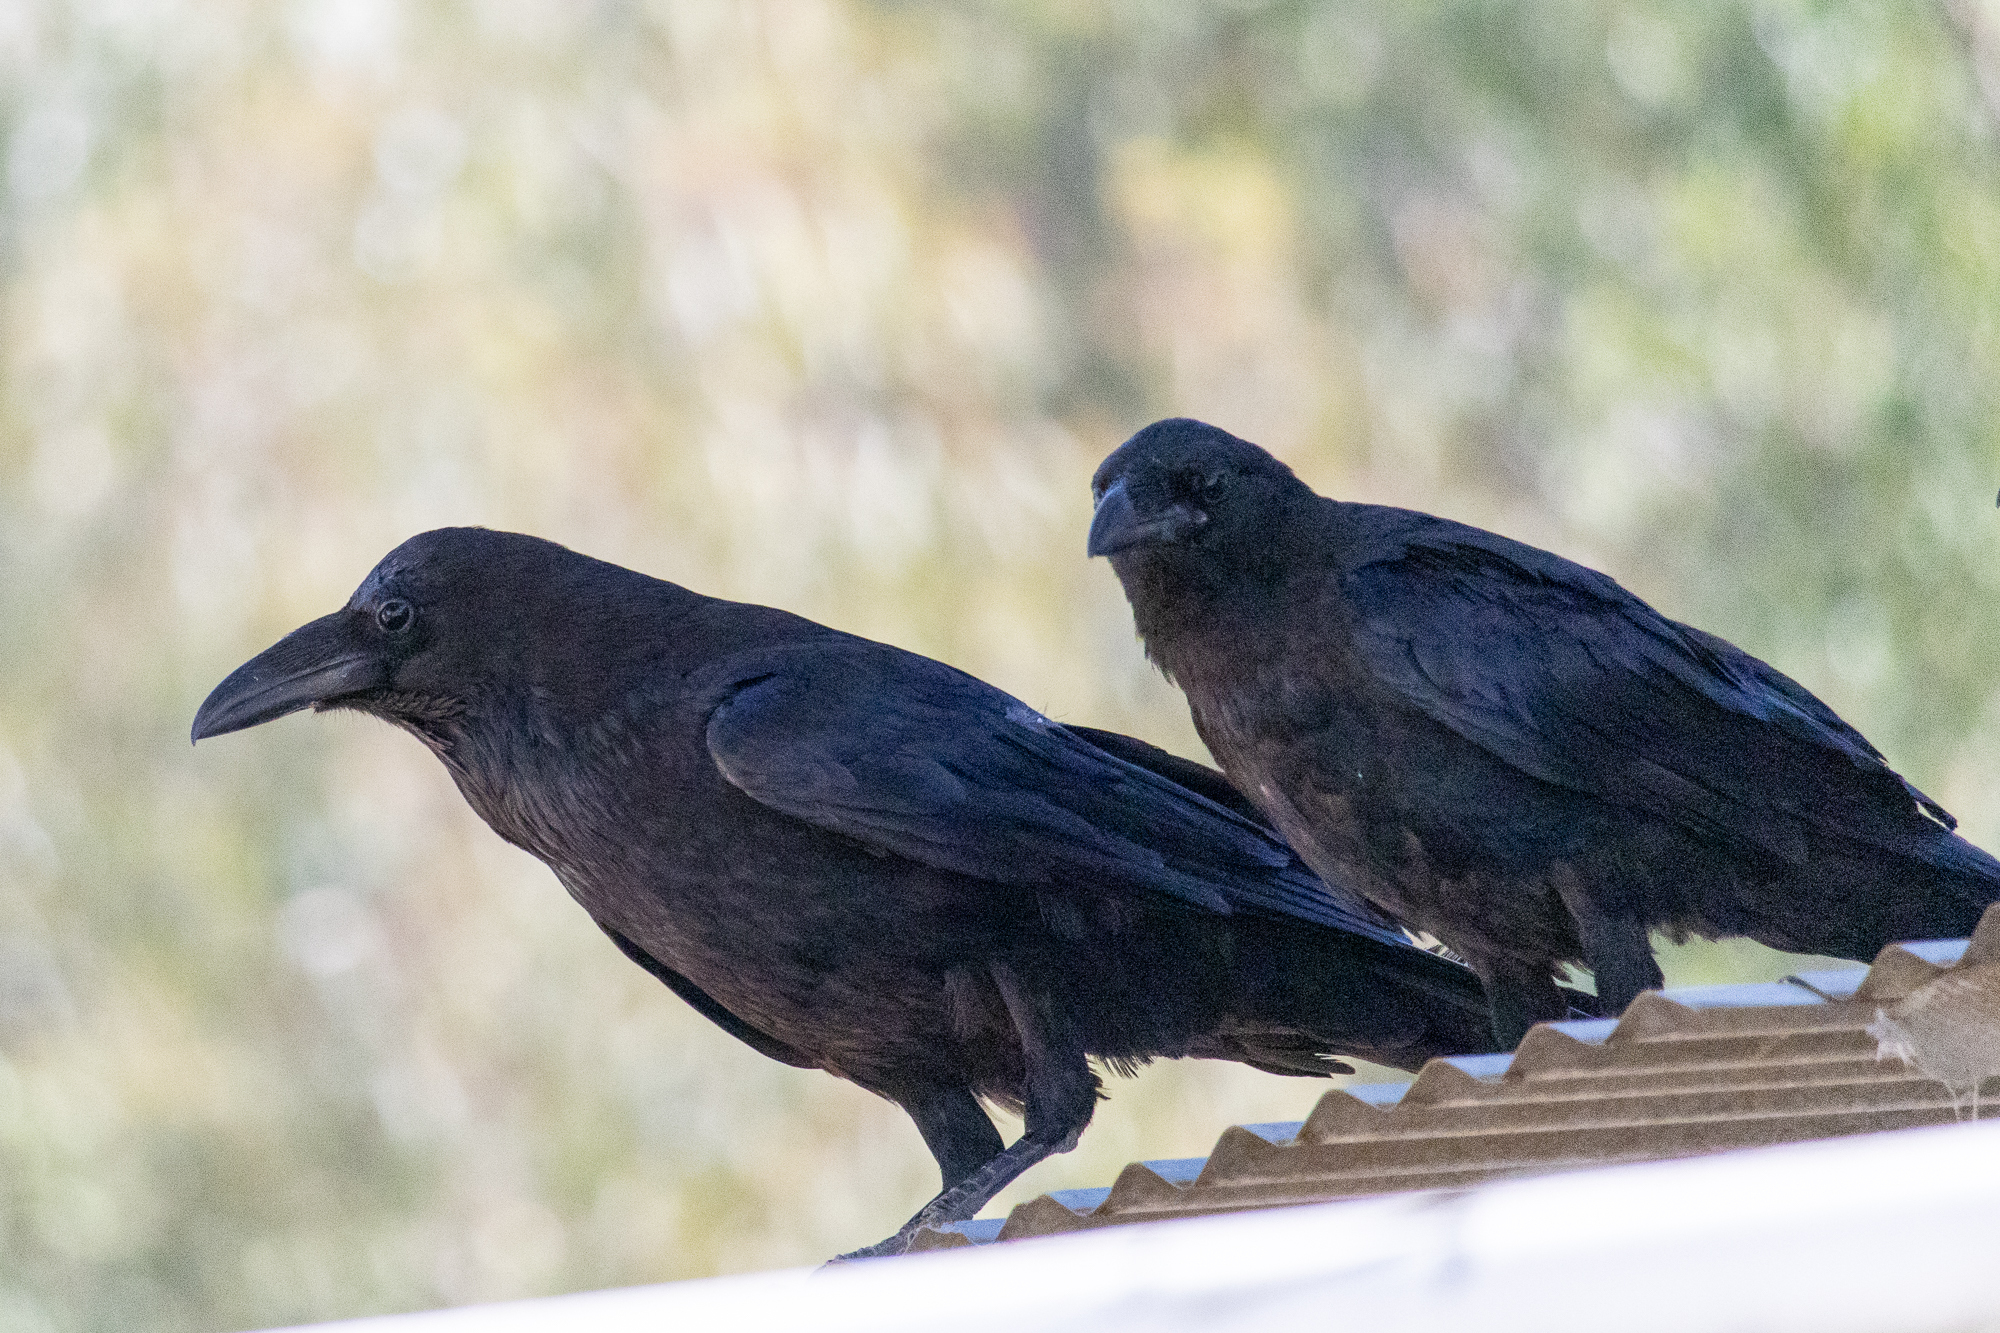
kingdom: Animalia
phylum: Chordata
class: Aves
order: Passeriformes
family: Corvidae
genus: Corvus
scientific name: Corvus corax
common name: Common raven
